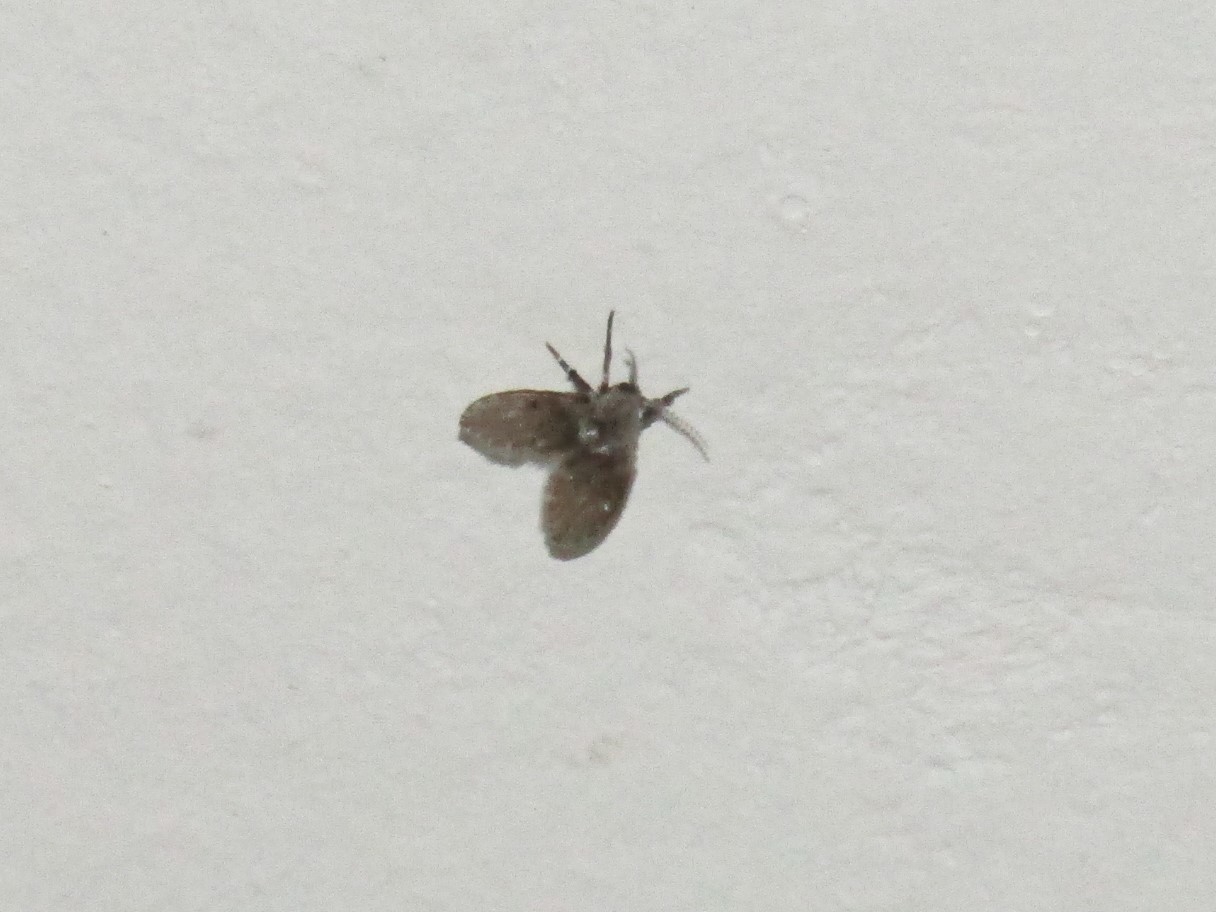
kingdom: Animalia
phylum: Arthropoda
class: Insecta
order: Diptera
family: Psychodidae
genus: Clogmia
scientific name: Clogmia albipunctatus
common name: White-spotted moth fly
